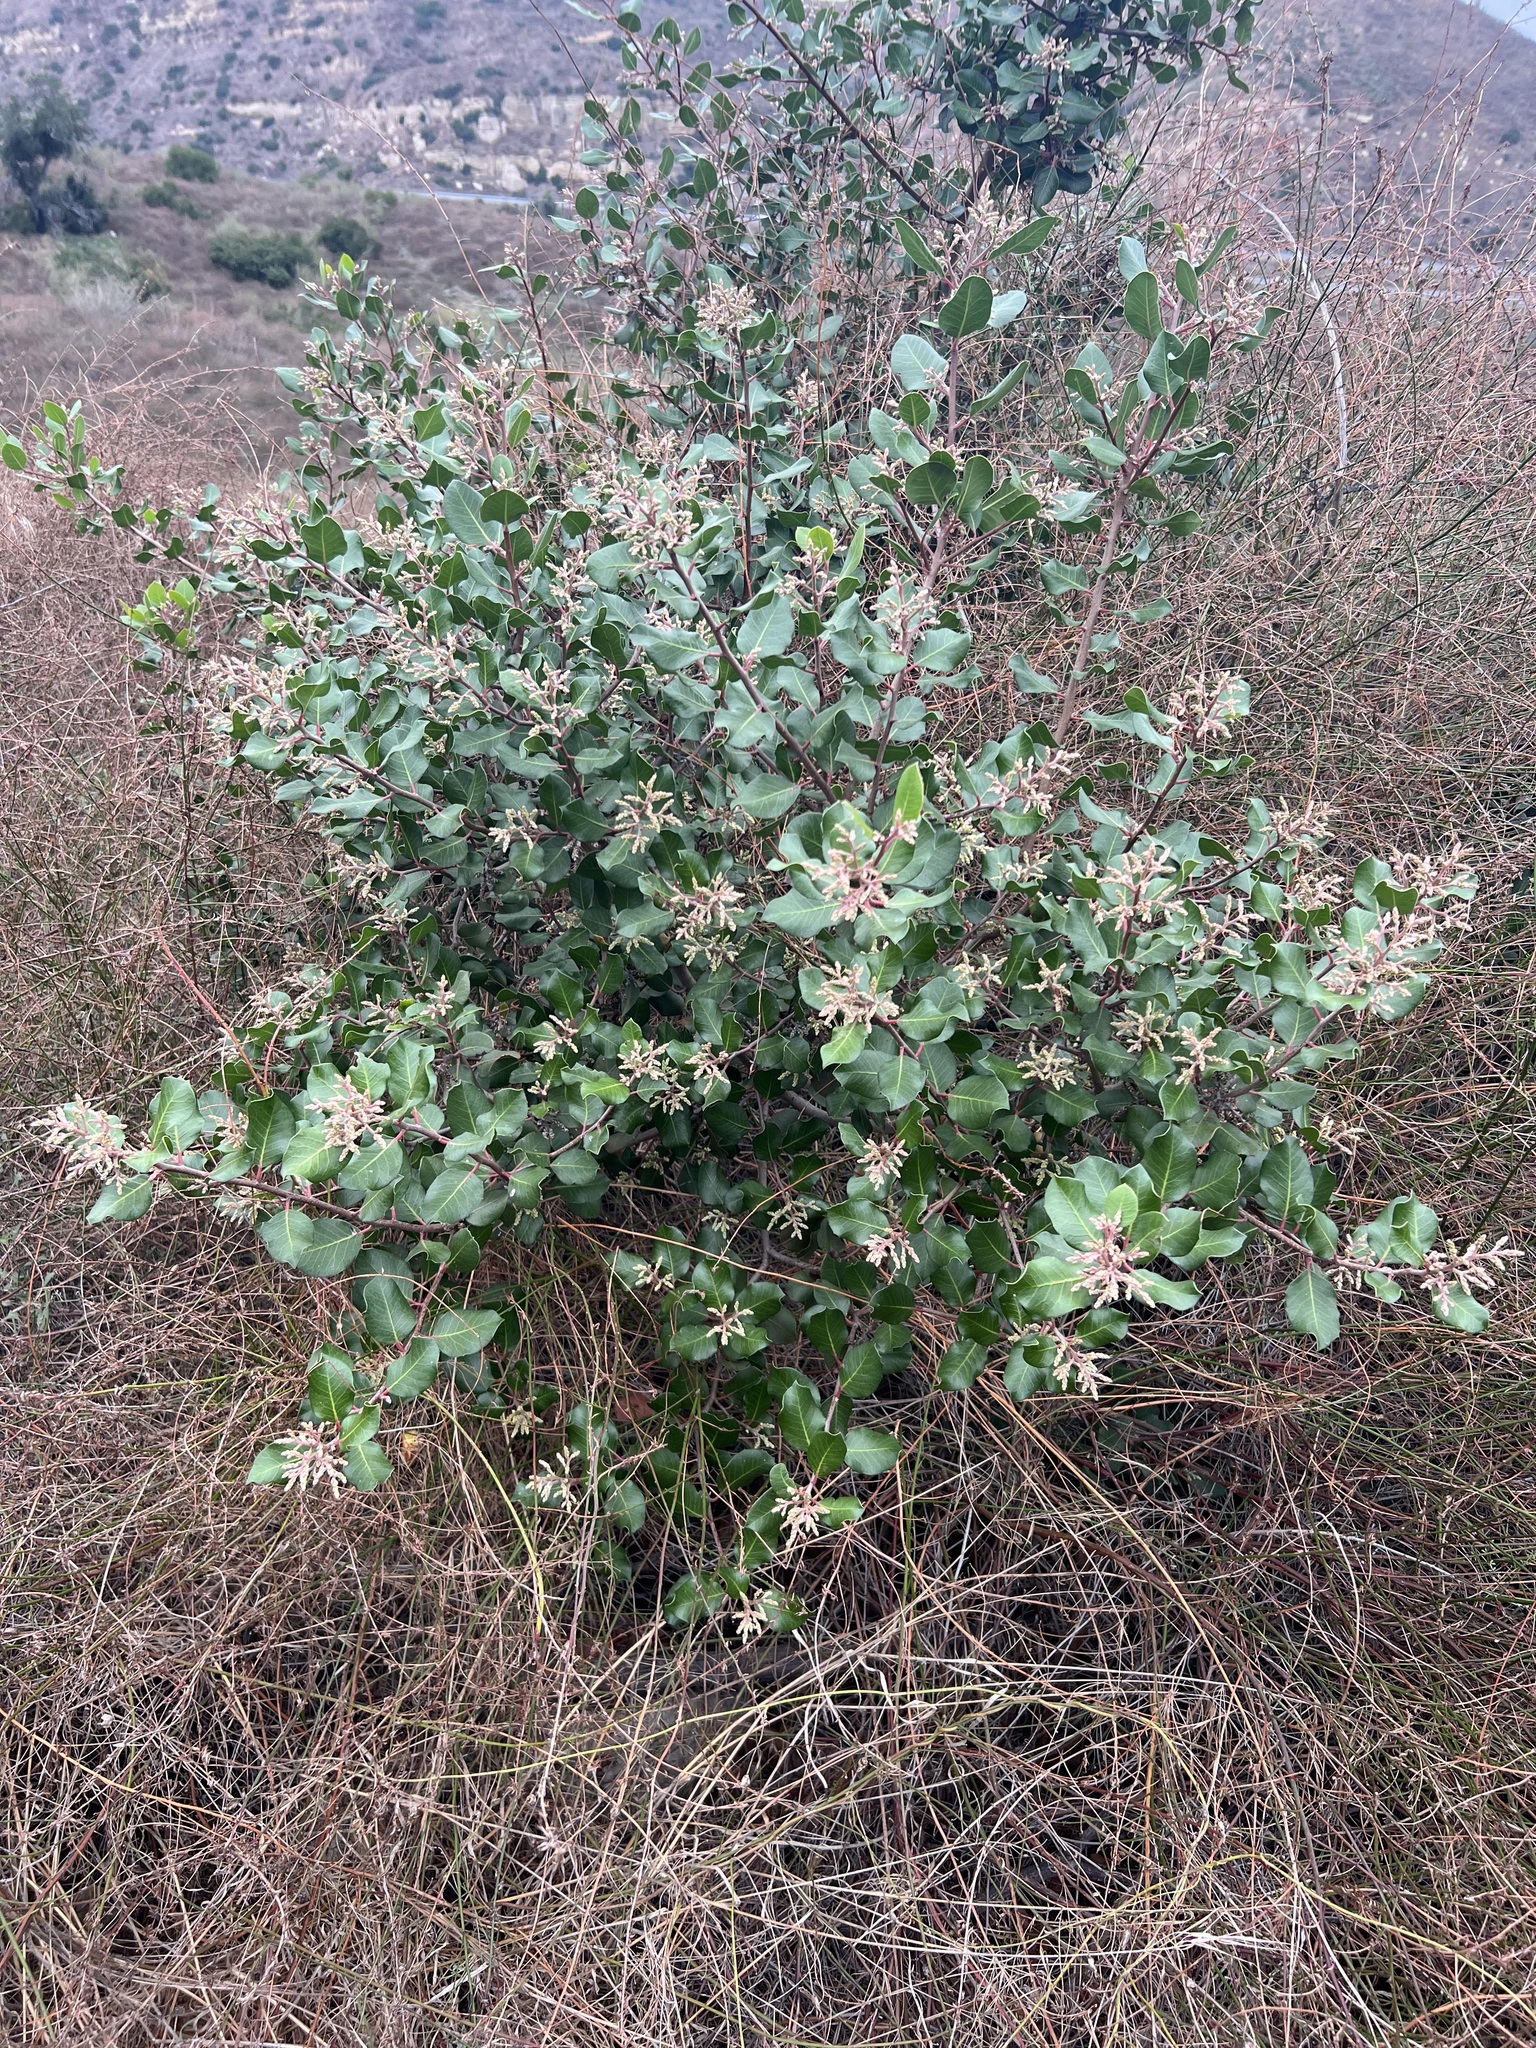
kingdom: Plantae
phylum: Tracheophyta
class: Magnoliopsida
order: Sapindales
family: Anacardiaceae
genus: Rhus
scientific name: Rhus
